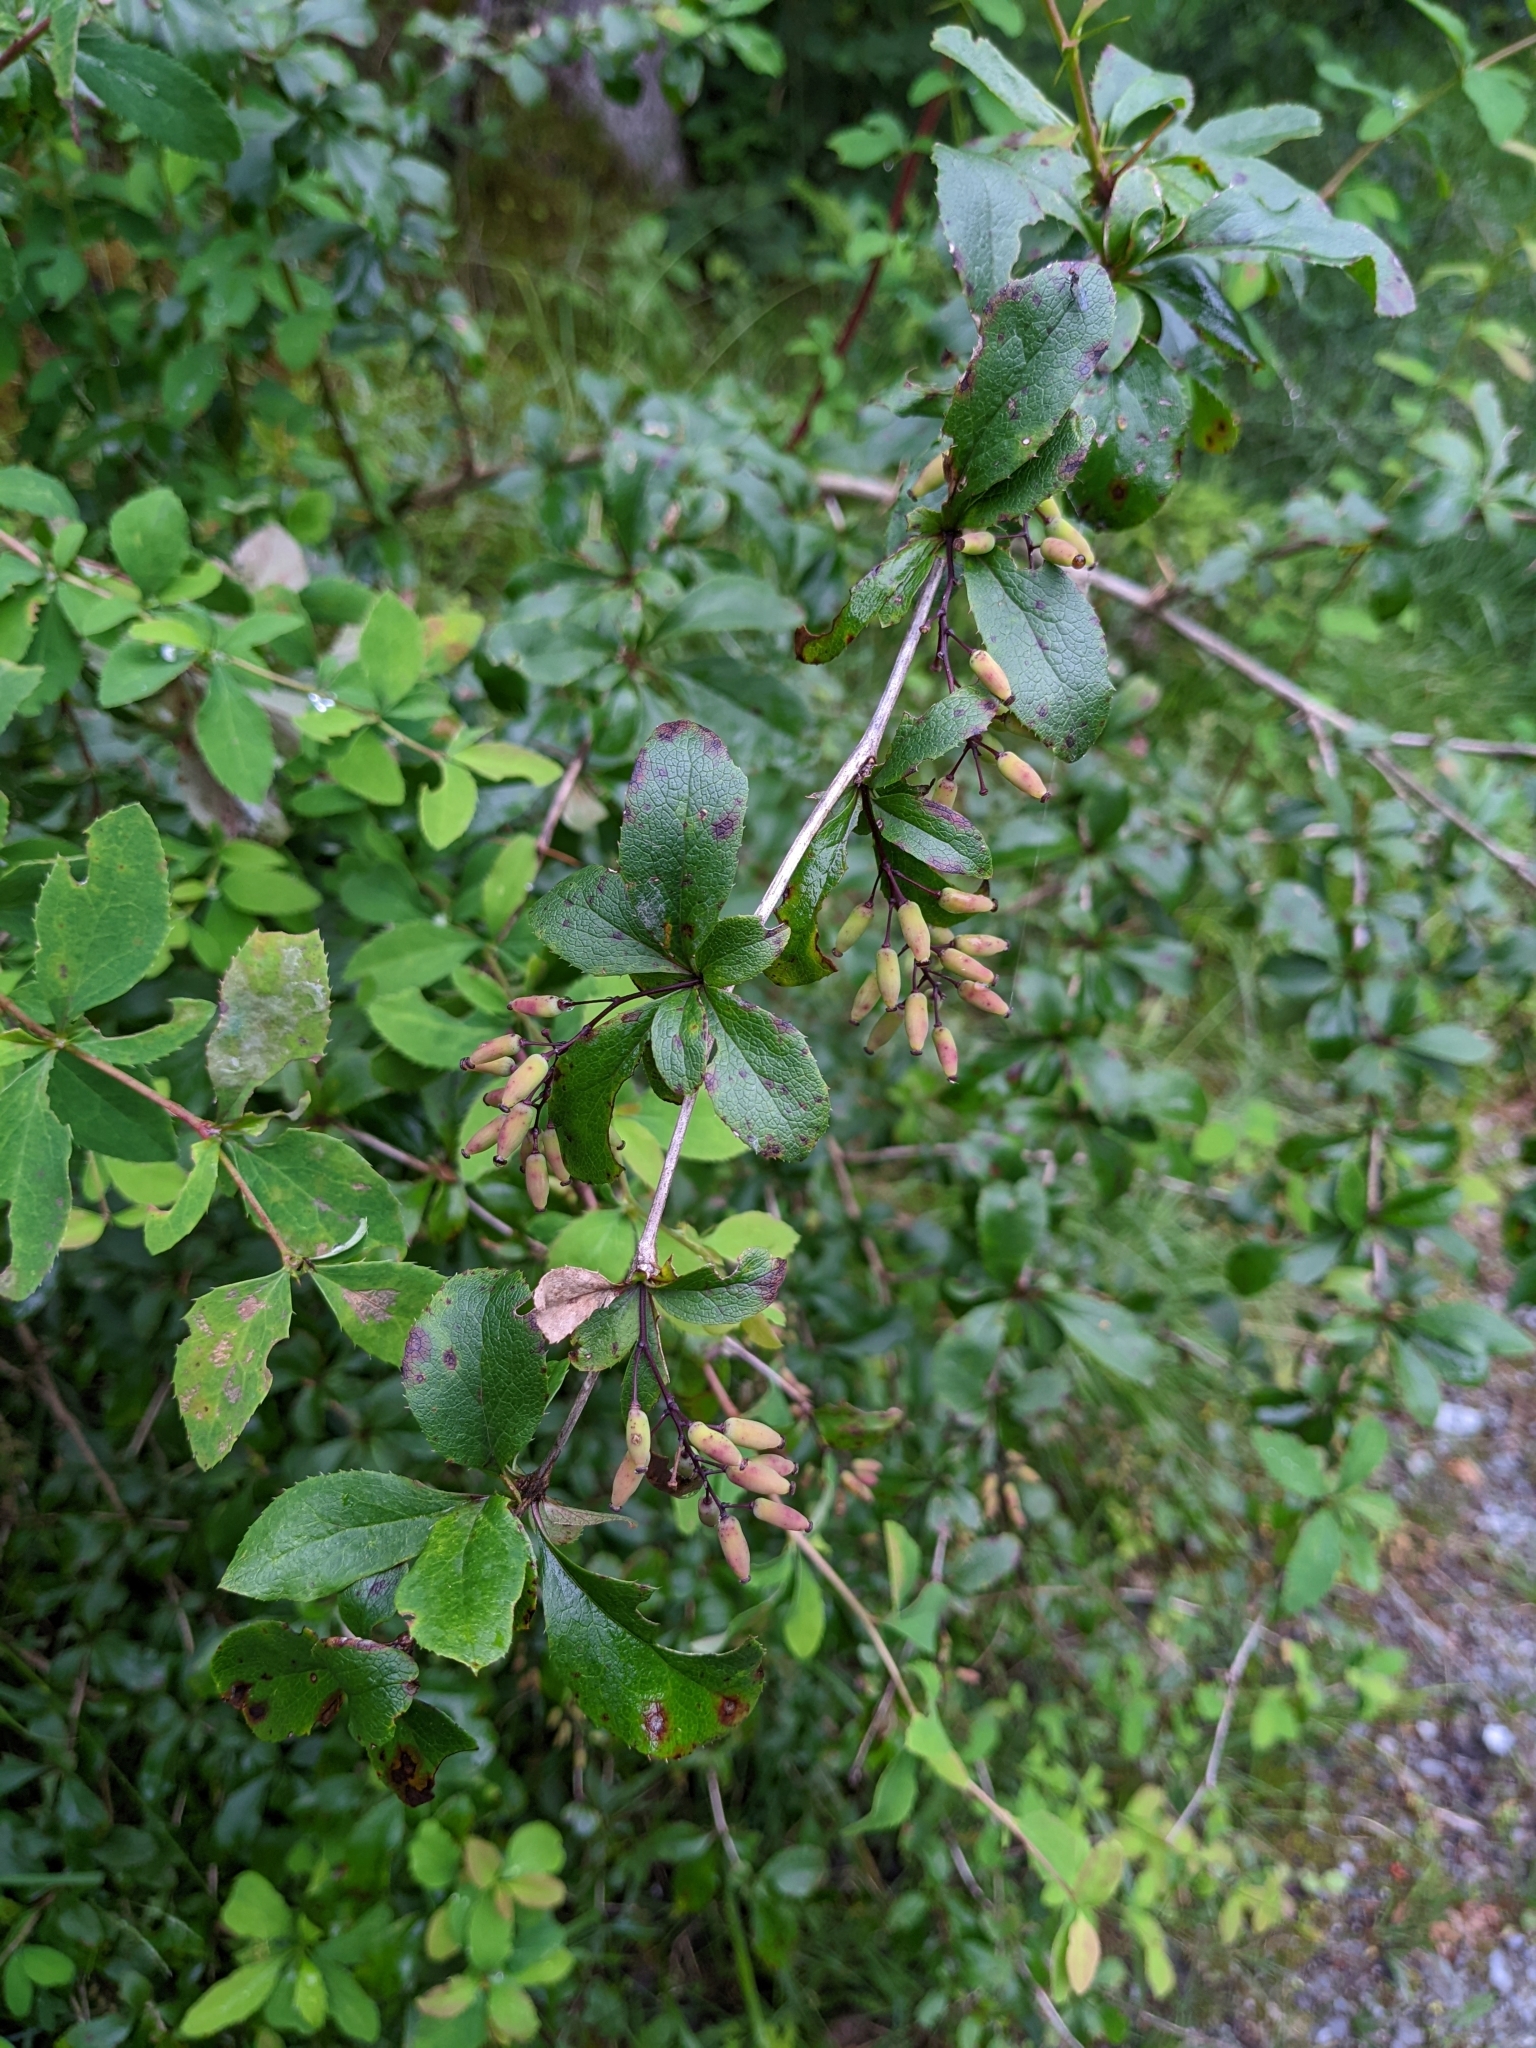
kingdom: Plantae
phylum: Tracheophyta
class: Magnoliopsida
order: Ranunculales
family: Berberidaceae
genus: Berberis
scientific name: Berberis vulgaris
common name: Barberry
